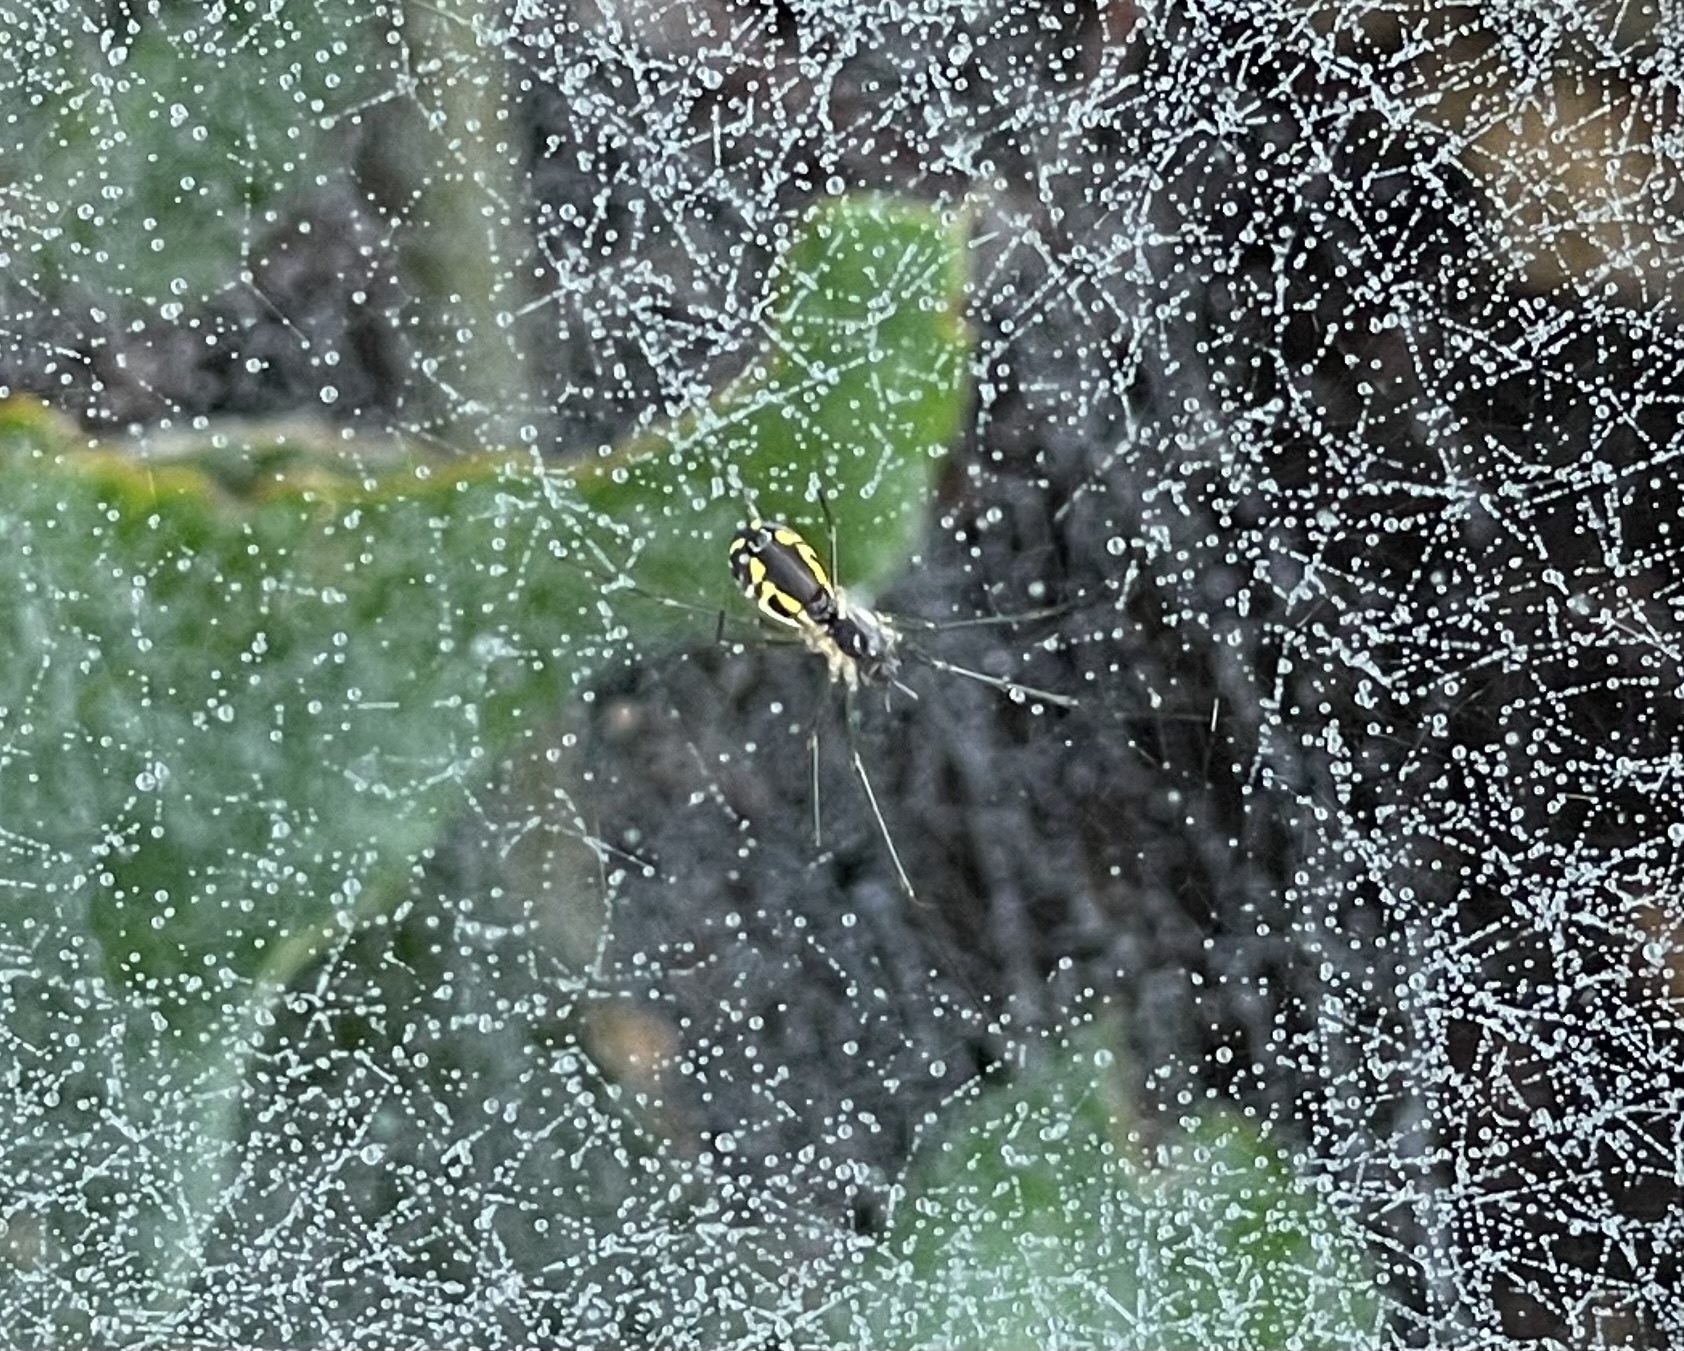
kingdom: Animalia
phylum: Arthropoda
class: Arachnida
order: Araneae
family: Linyphiidae
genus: Neriene
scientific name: Neriene radiata
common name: Filmy dome spider
